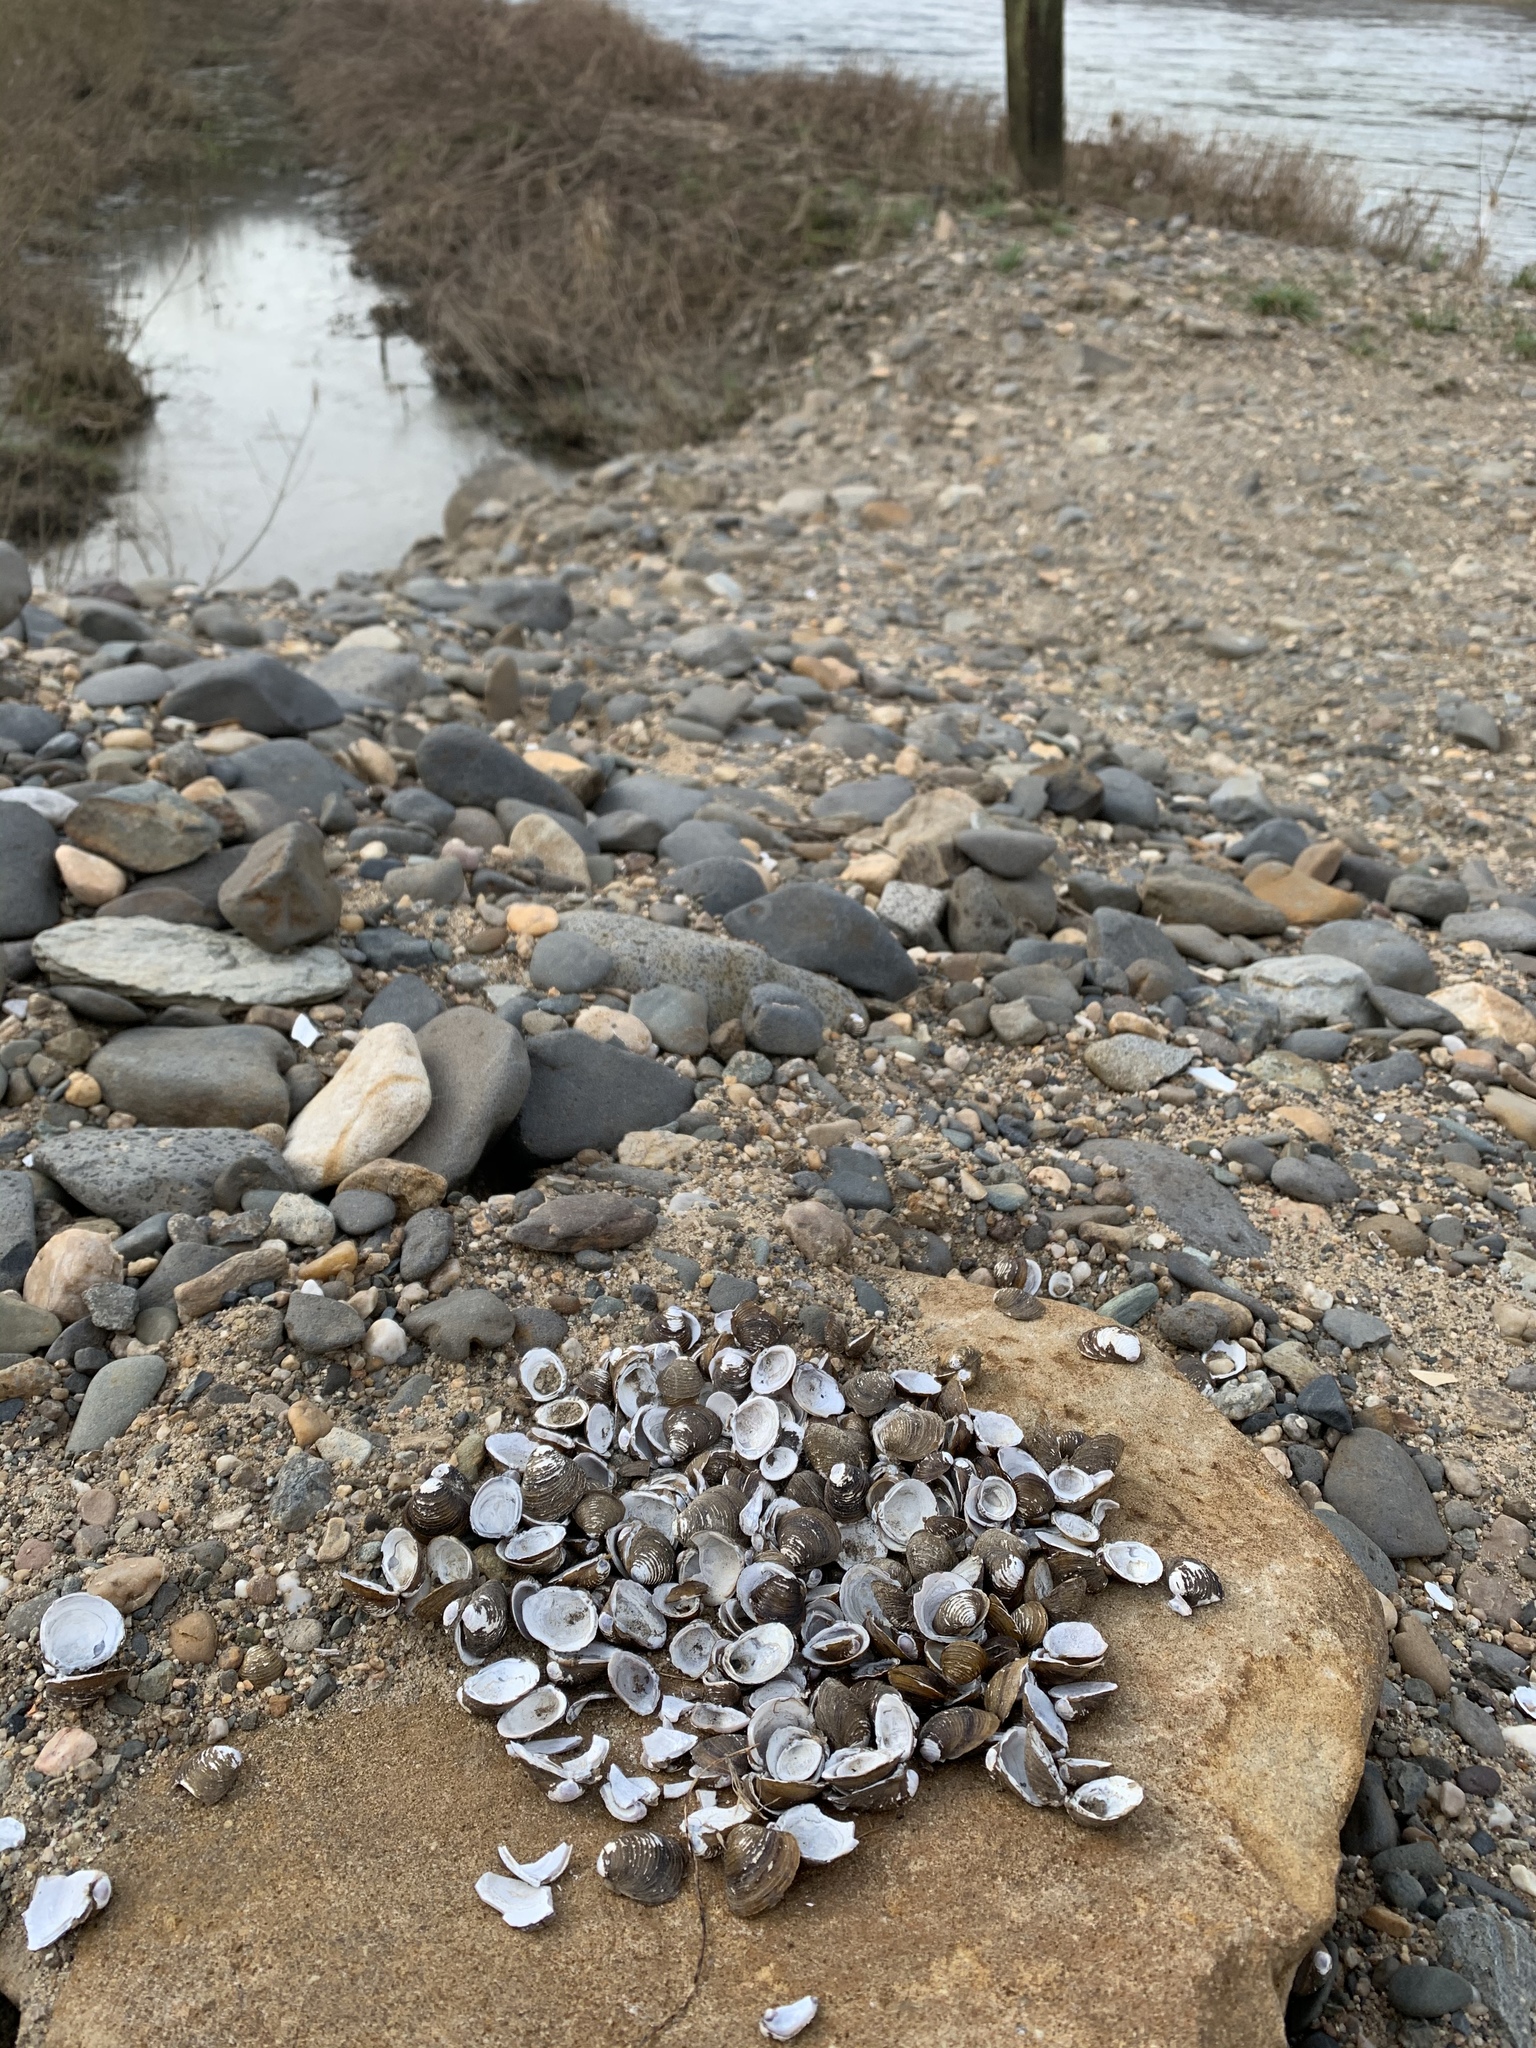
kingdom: Animalia
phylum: Mollusca
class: Bivalvia
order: Venerida
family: Cyrenidae
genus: Corbicula
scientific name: Corbicula fluminea
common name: Asian clam
